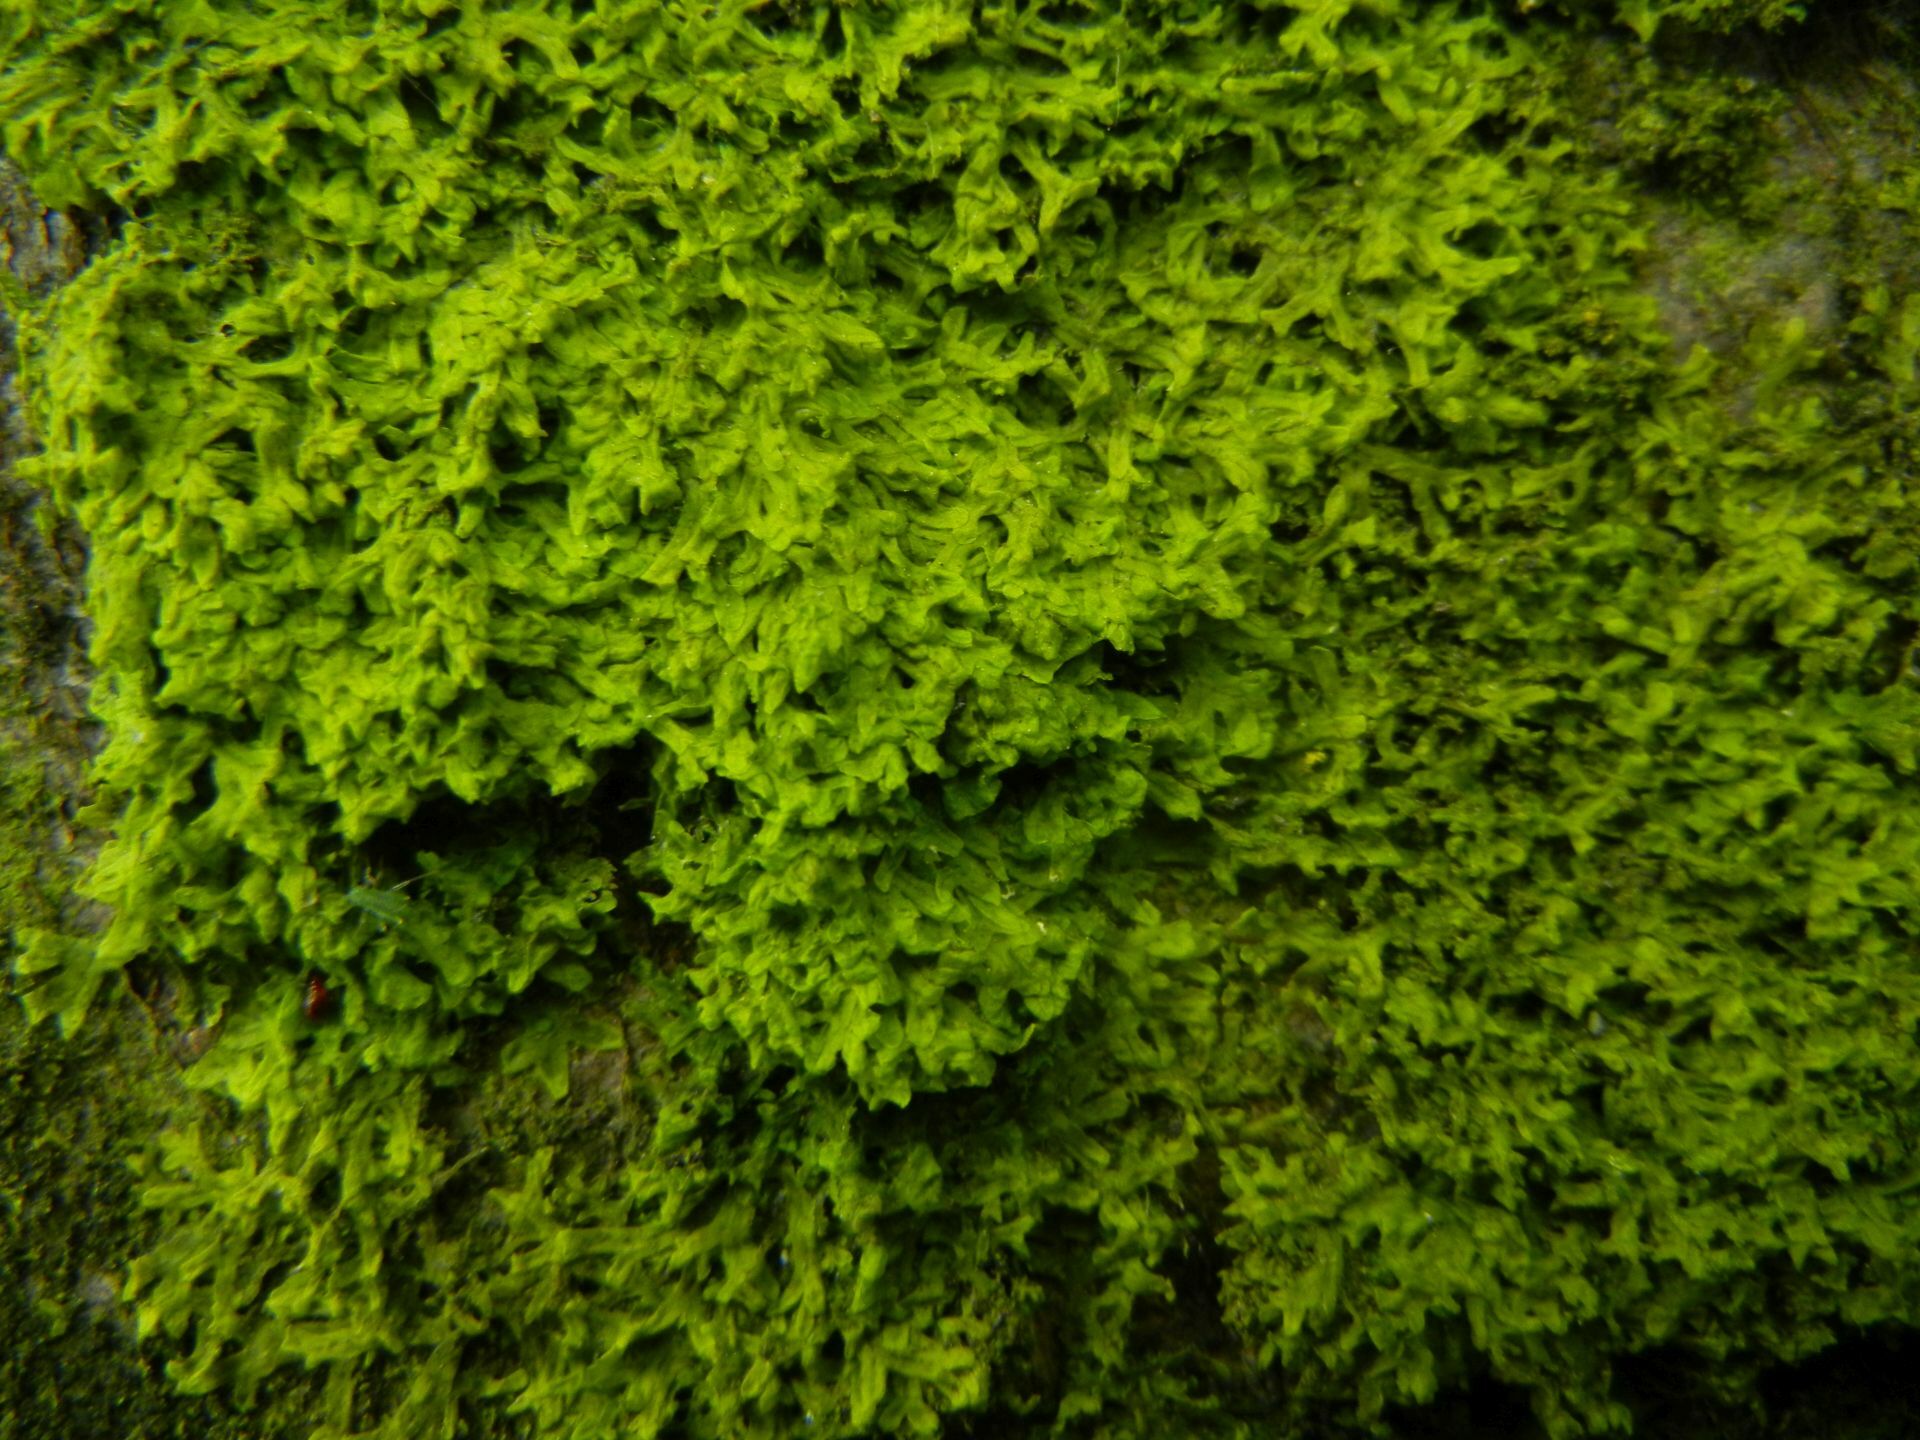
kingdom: Plantae
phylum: Marchantiophyta
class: Jungermanniopsida
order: Metzgeriales
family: Metzgeriaceae
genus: Metzgeria
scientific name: Metzgeria furcata
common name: Forked veilwort
